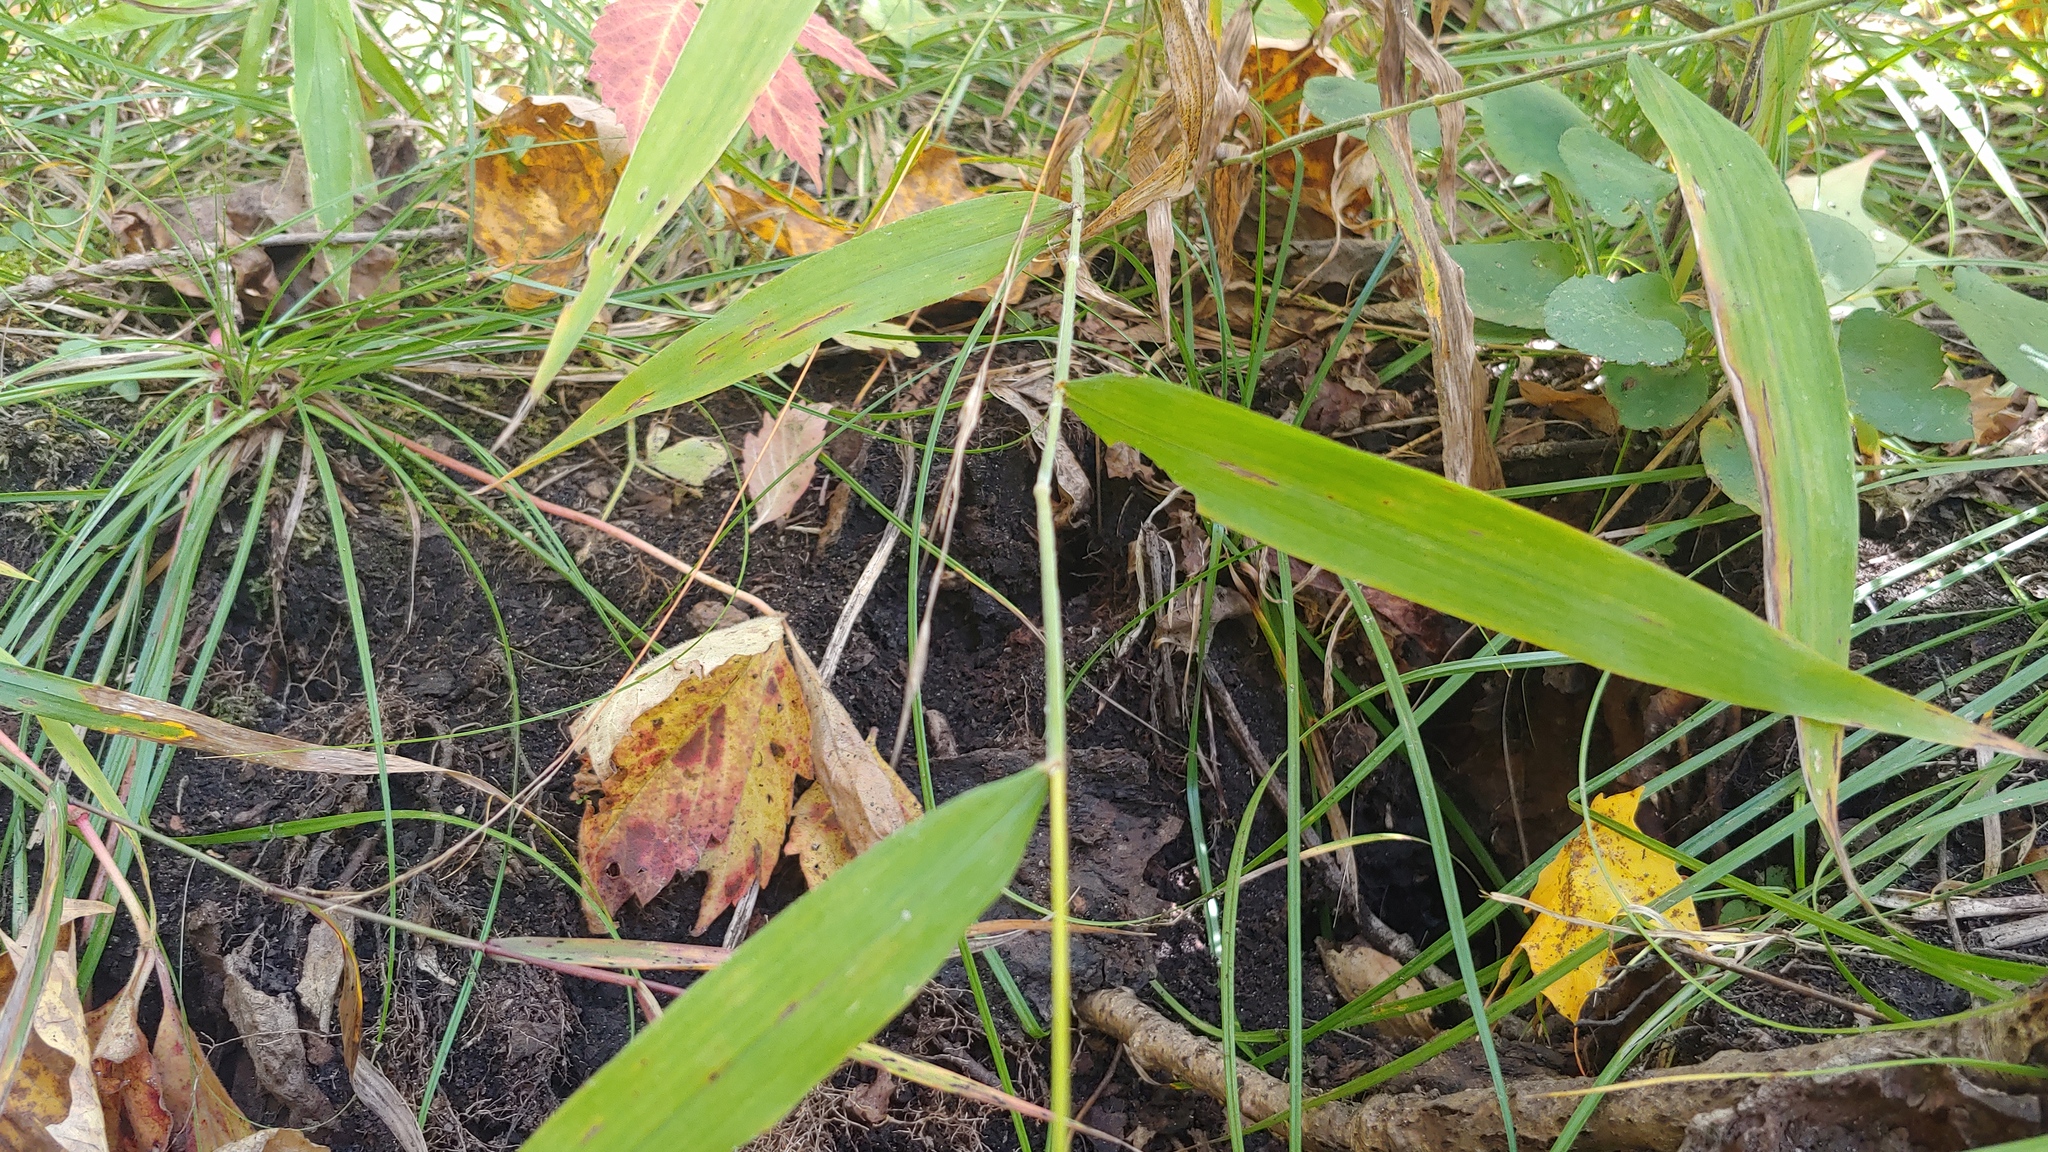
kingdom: Plantae
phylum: Tracheophyta
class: Liliopsida
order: Poales
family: Poaceae
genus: Brachyelytrum
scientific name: Brachyelytrum erectum
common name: Bearded shorthusk
